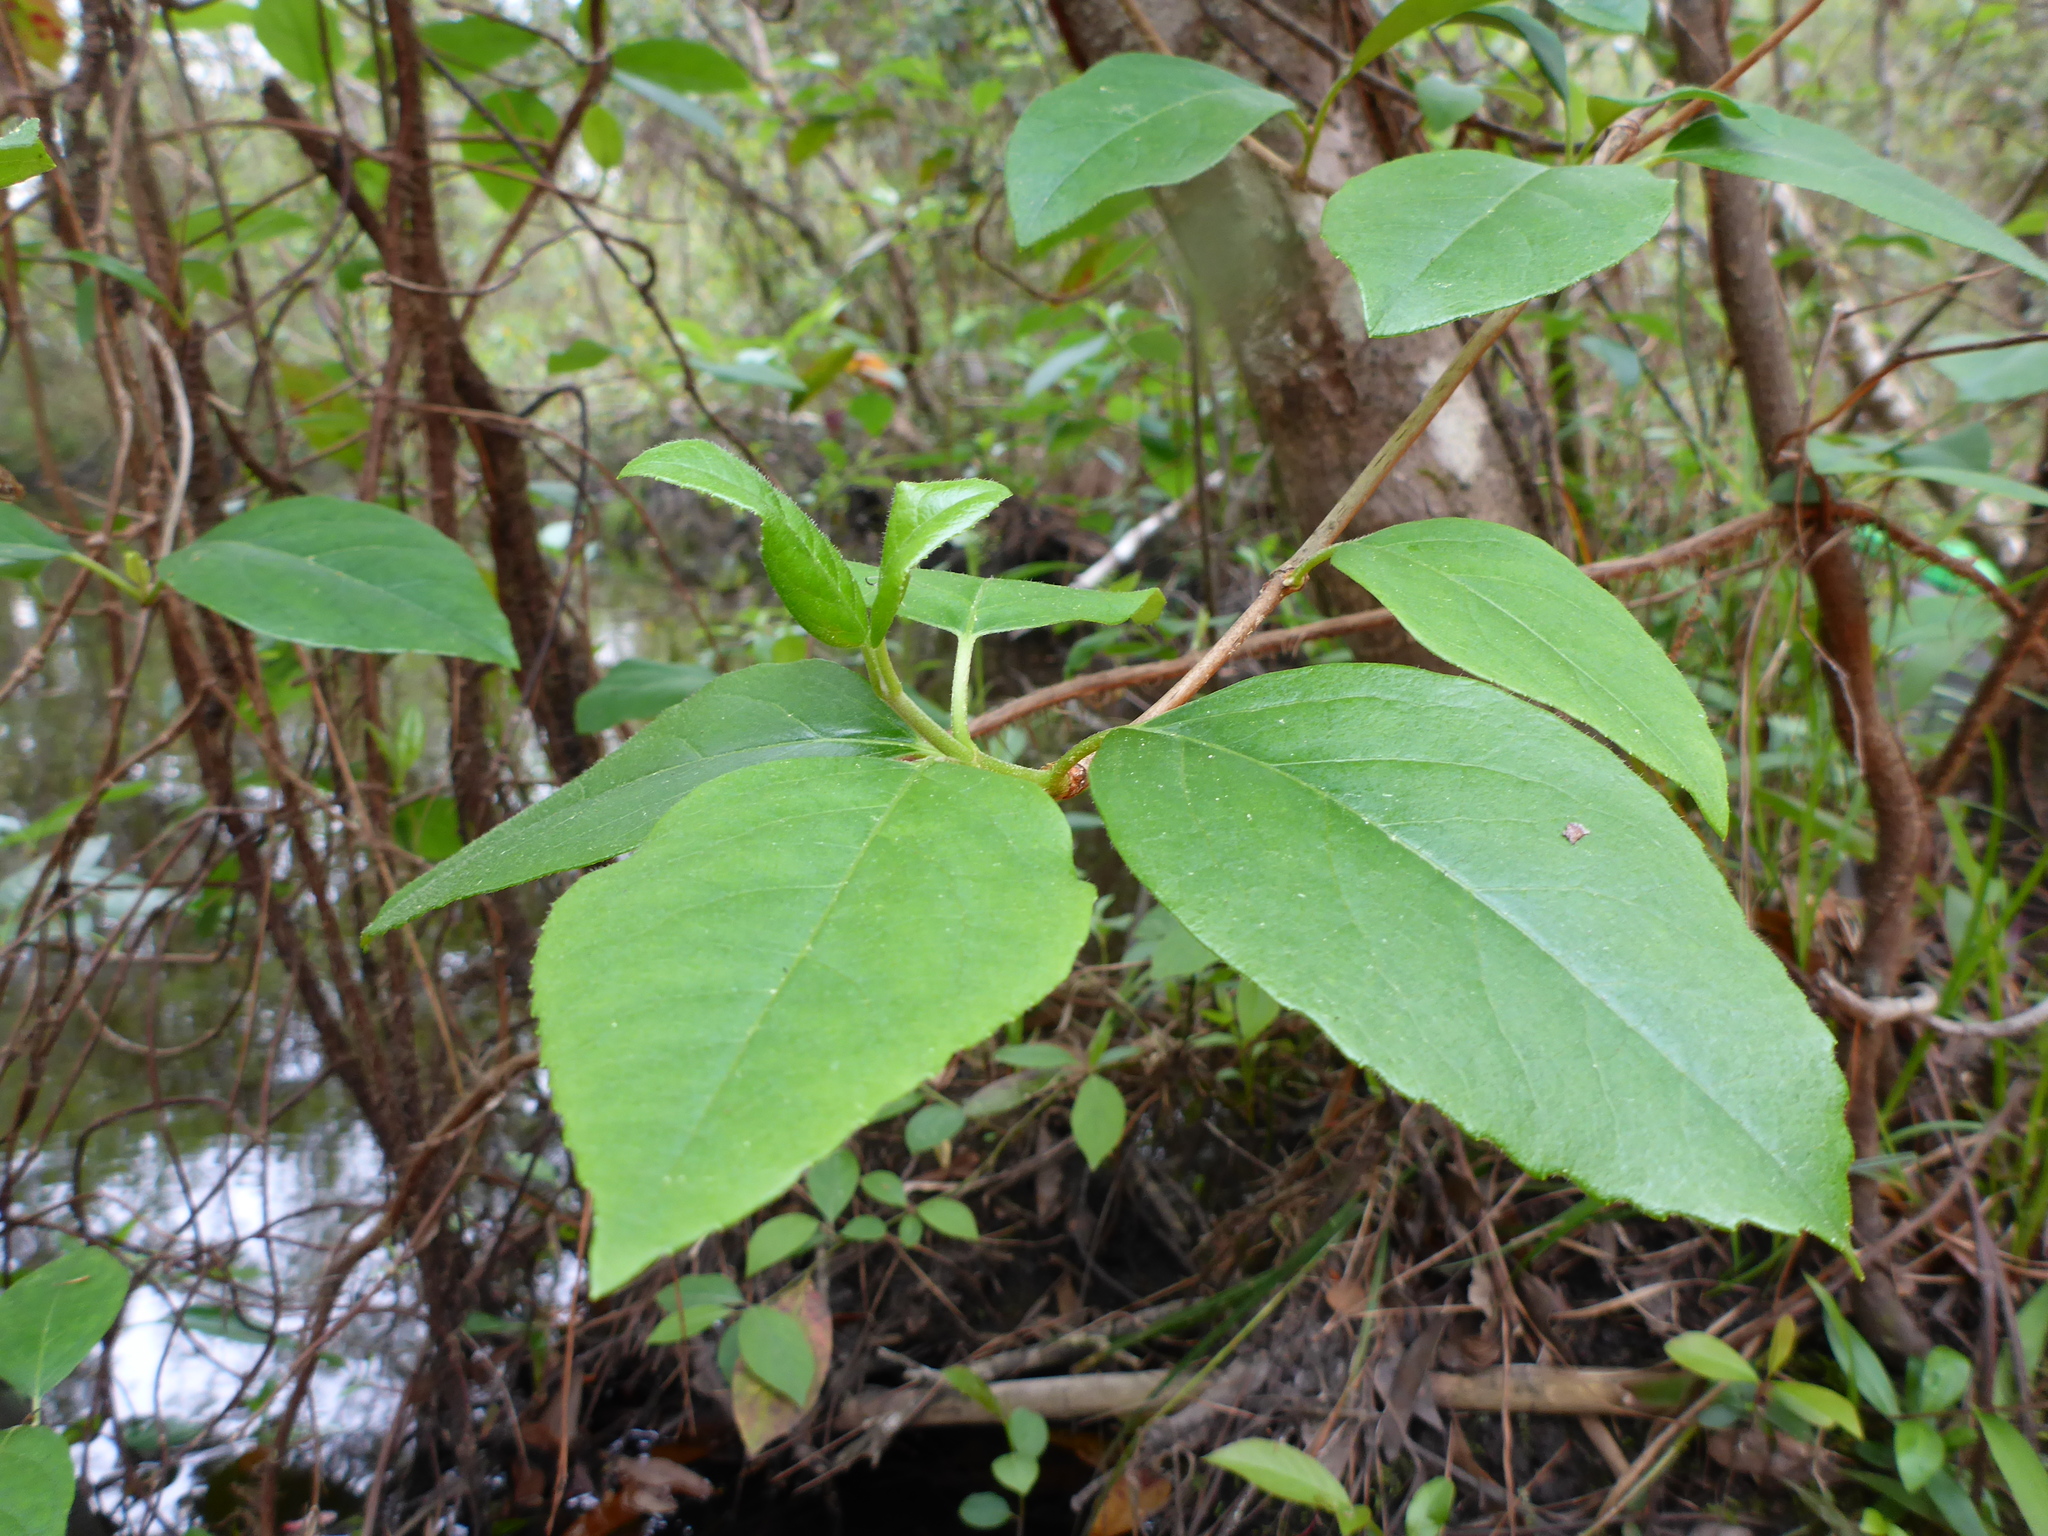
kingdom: Plantae
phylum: Tracheophyta
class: Magnoliopsida
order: Cornales
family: Hydrangeaceae
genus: Hydrangea
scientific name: Hydrangea barbara
